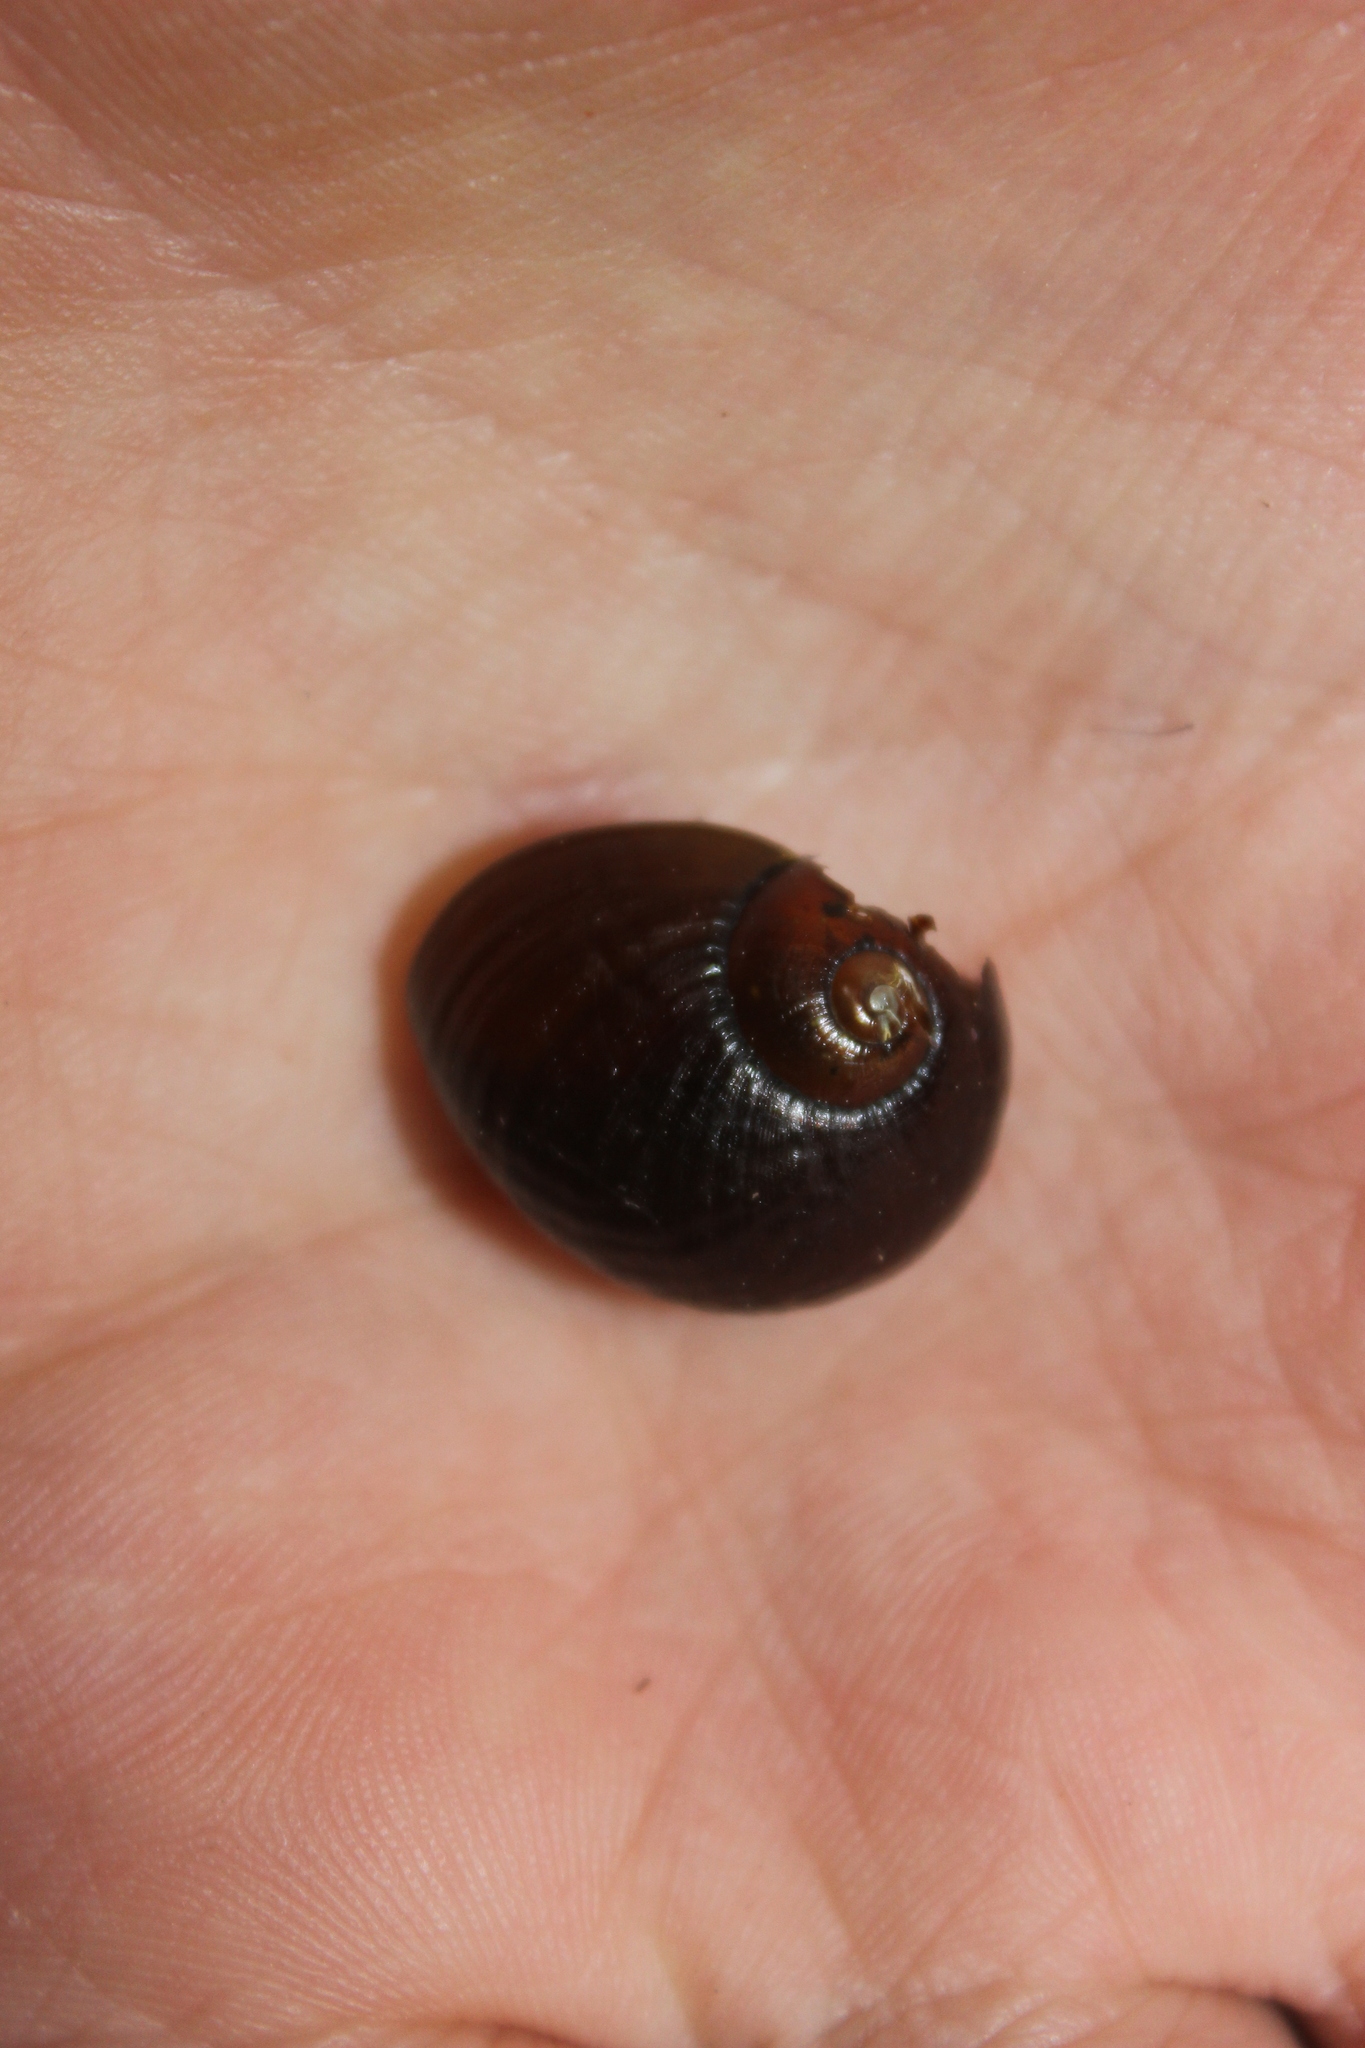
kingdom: Animalia
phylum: Mollusca
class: Gastropoda
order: Stylommatophora
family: Rhytididae
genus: Wainuia
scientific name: Wainuia urnula
